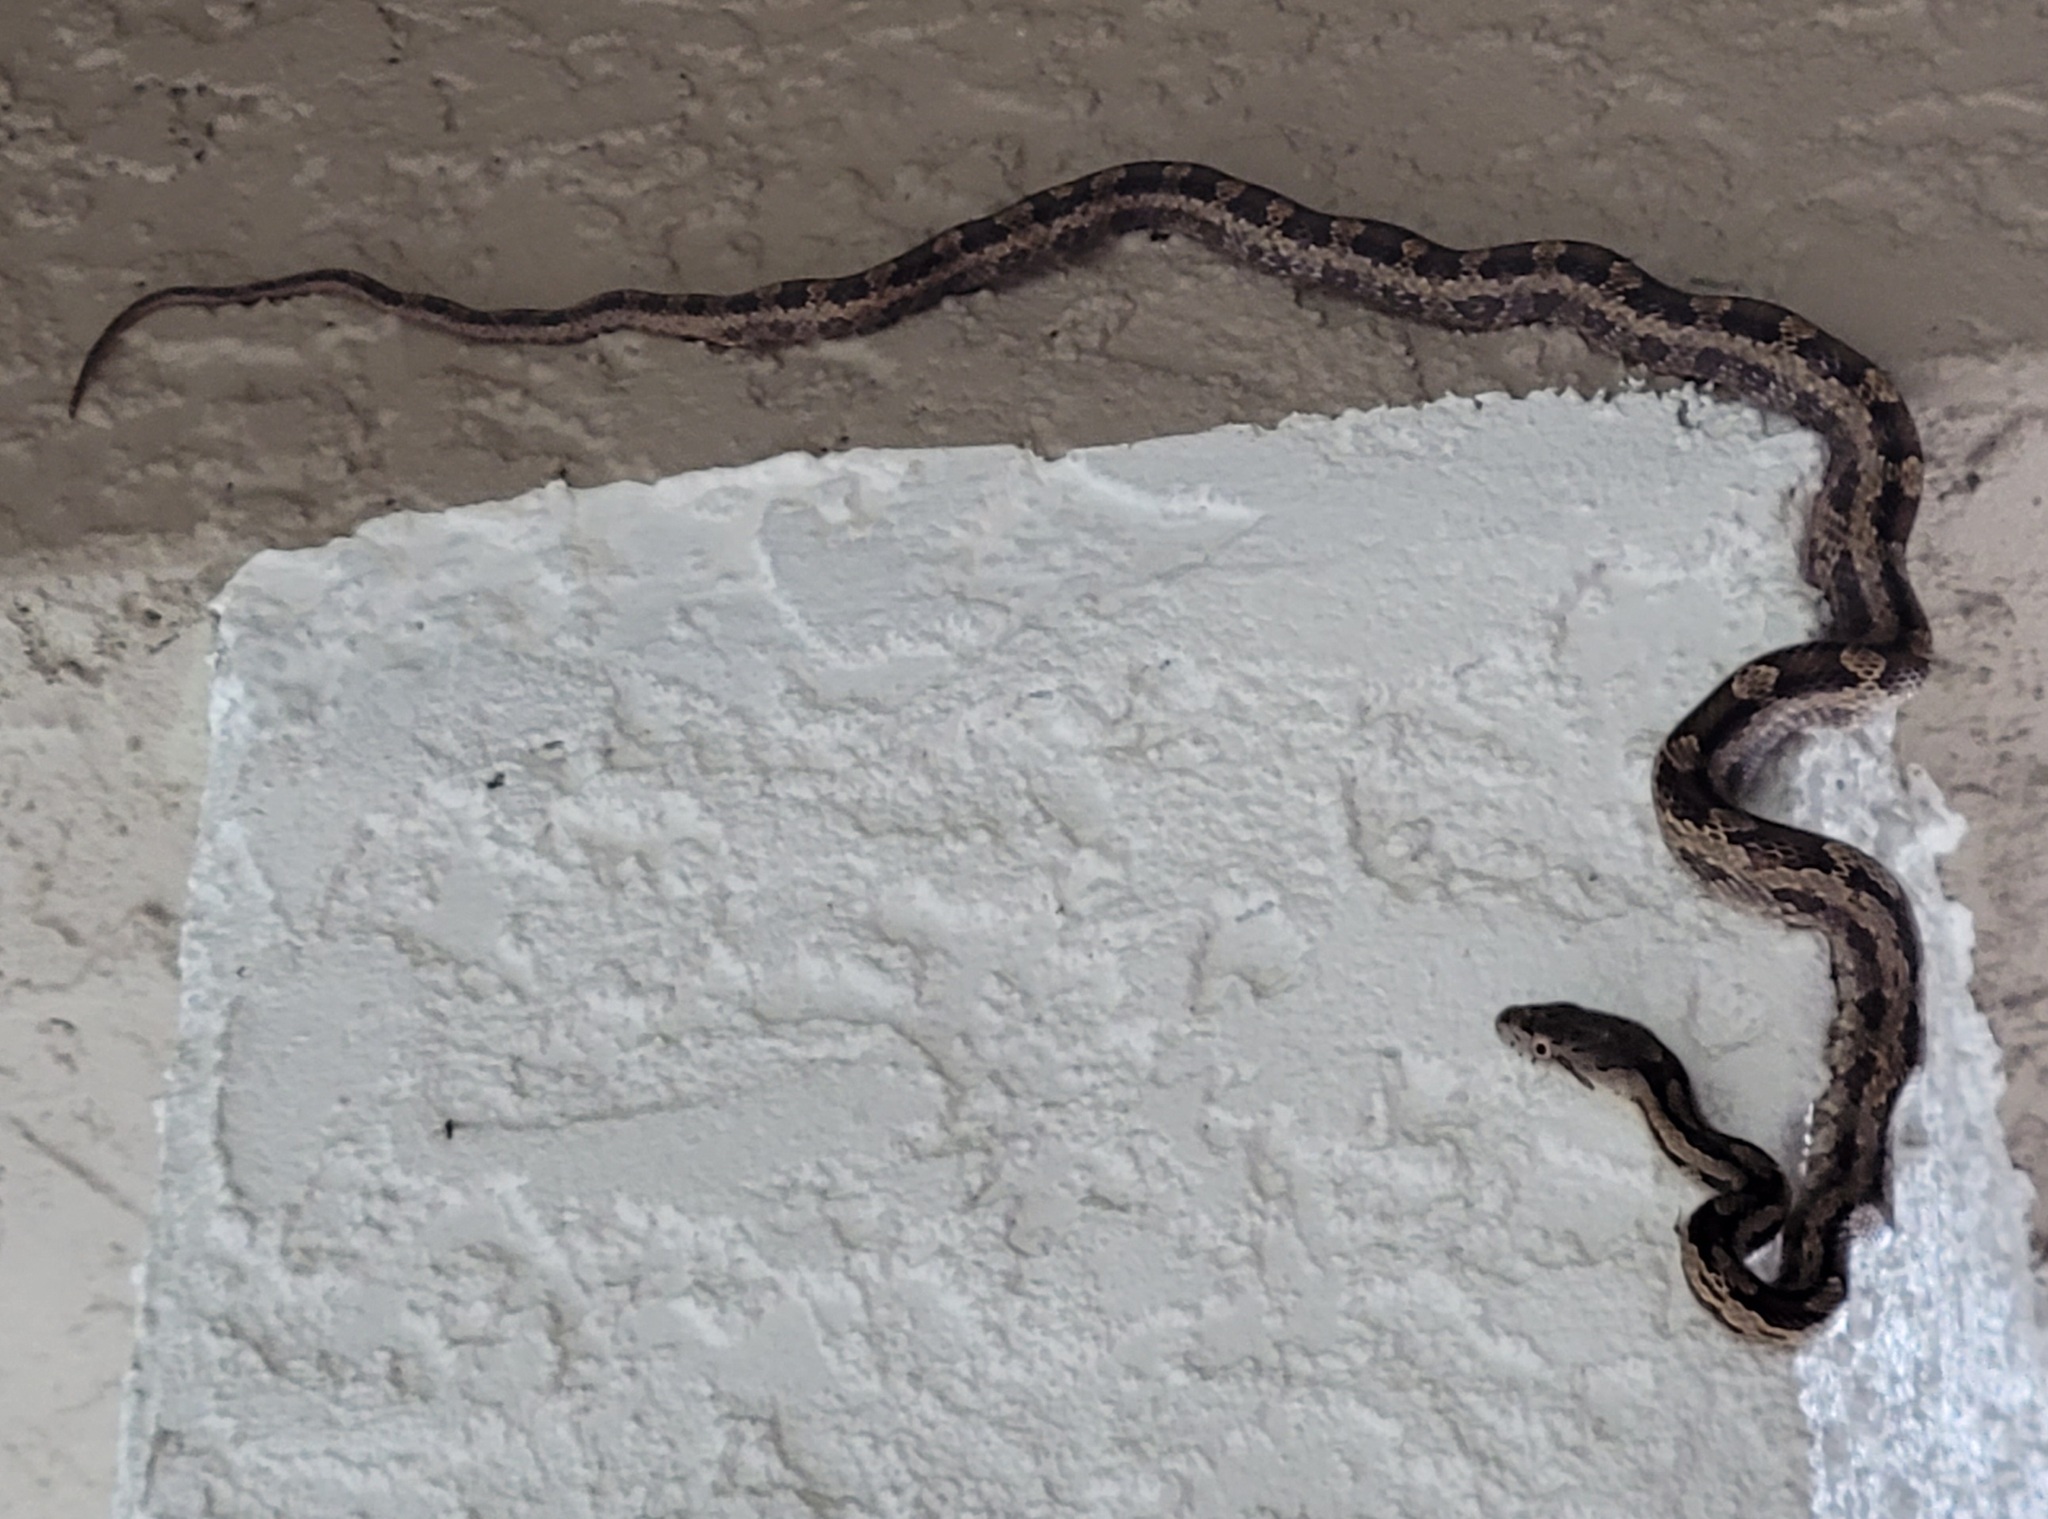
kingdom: Animalia
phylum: Chordata
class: Squamata
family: Colubridae
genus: Pantherophis
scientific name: Pantherophis alleghaniensis
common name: Eastern rat snake
